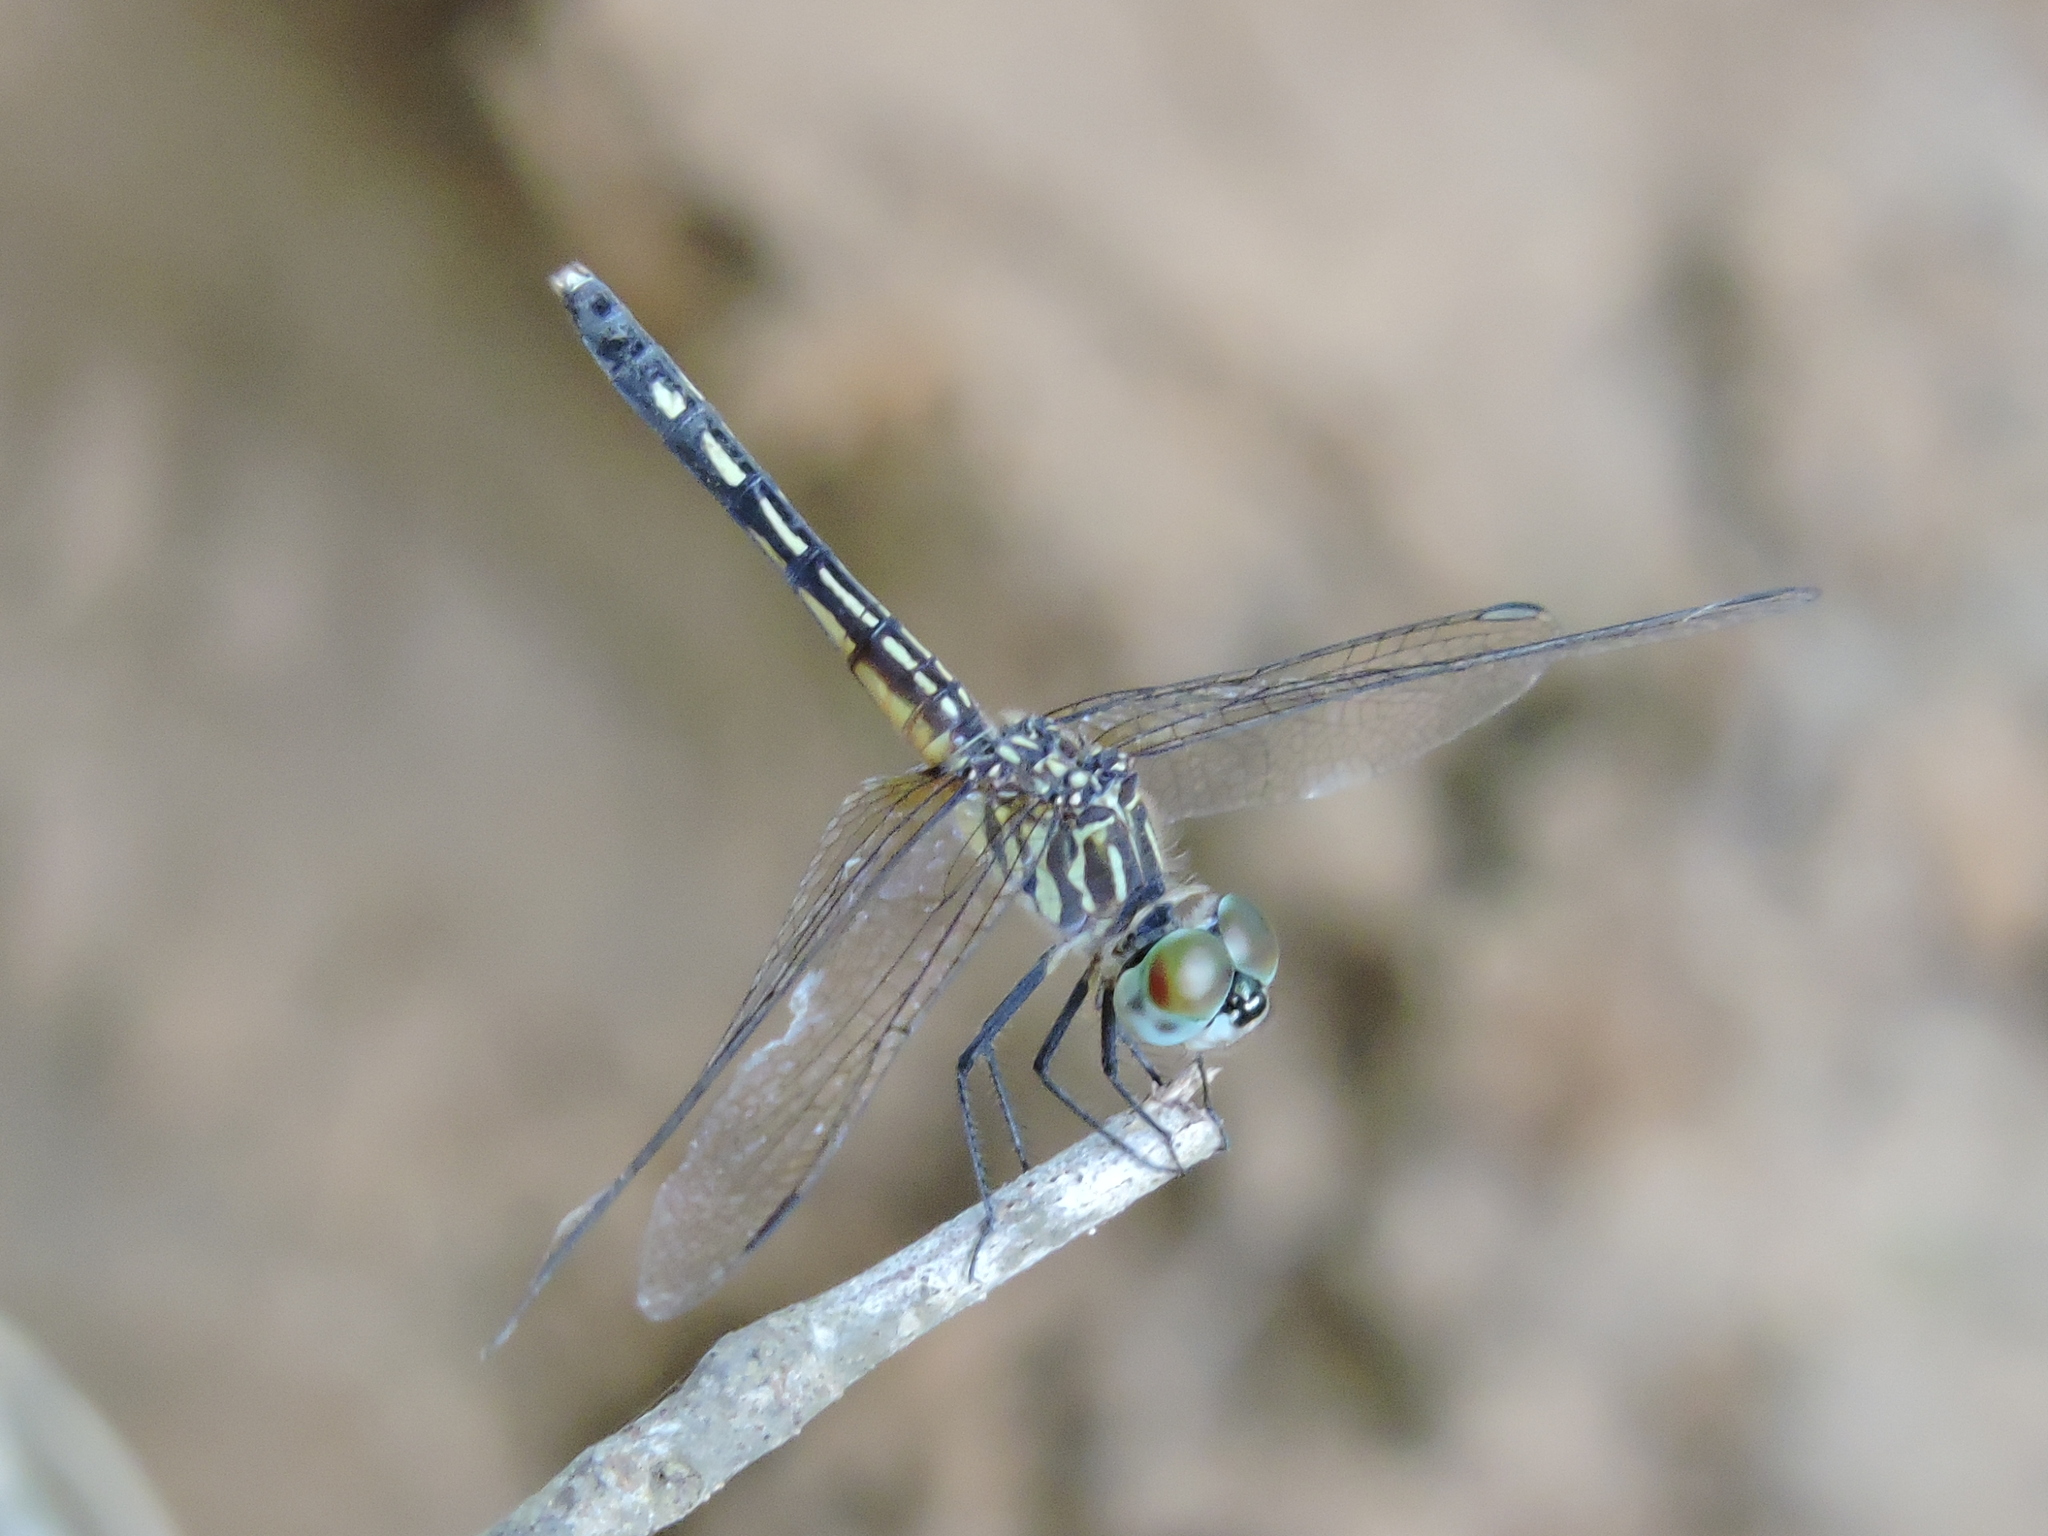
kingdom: Animalia
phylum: Arthropoda
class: Insecta
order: Odonata
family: Libellulidae
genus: Pachydiplax
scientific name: Pachydiplax longipennis
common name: Blue dasher
